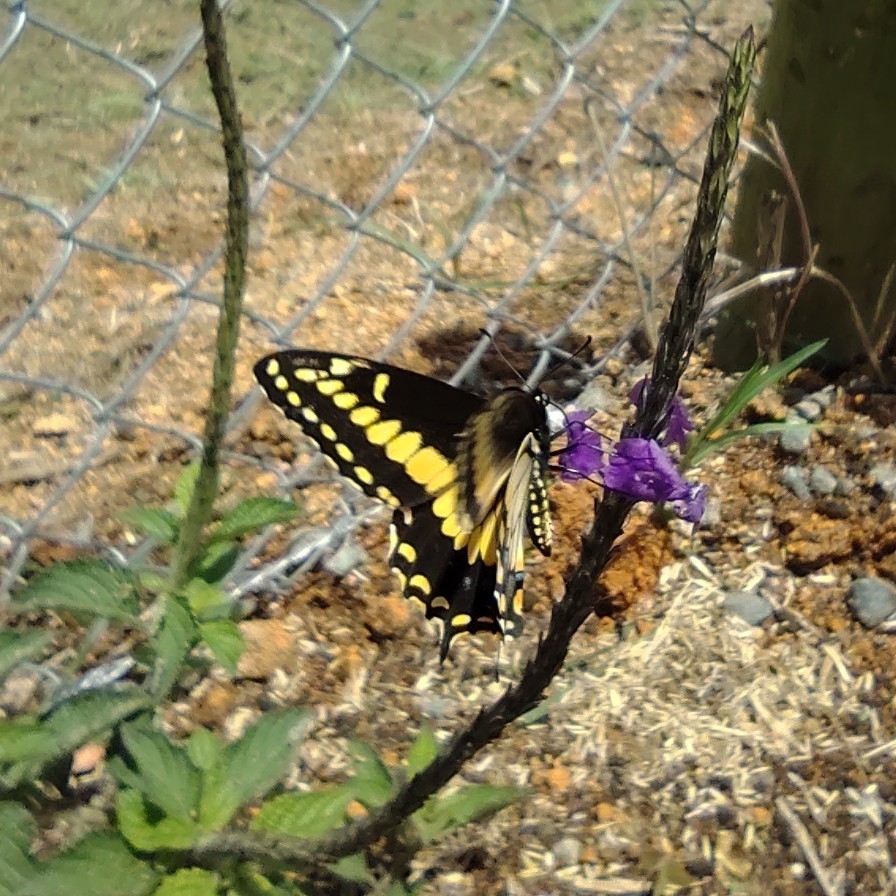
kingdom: Animalia
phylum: Arthropoda
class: Insecta
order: Lepidoptera
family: Papilionidae
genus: Papilio
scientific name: Papilio polyxenes
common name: Black swallowtail
